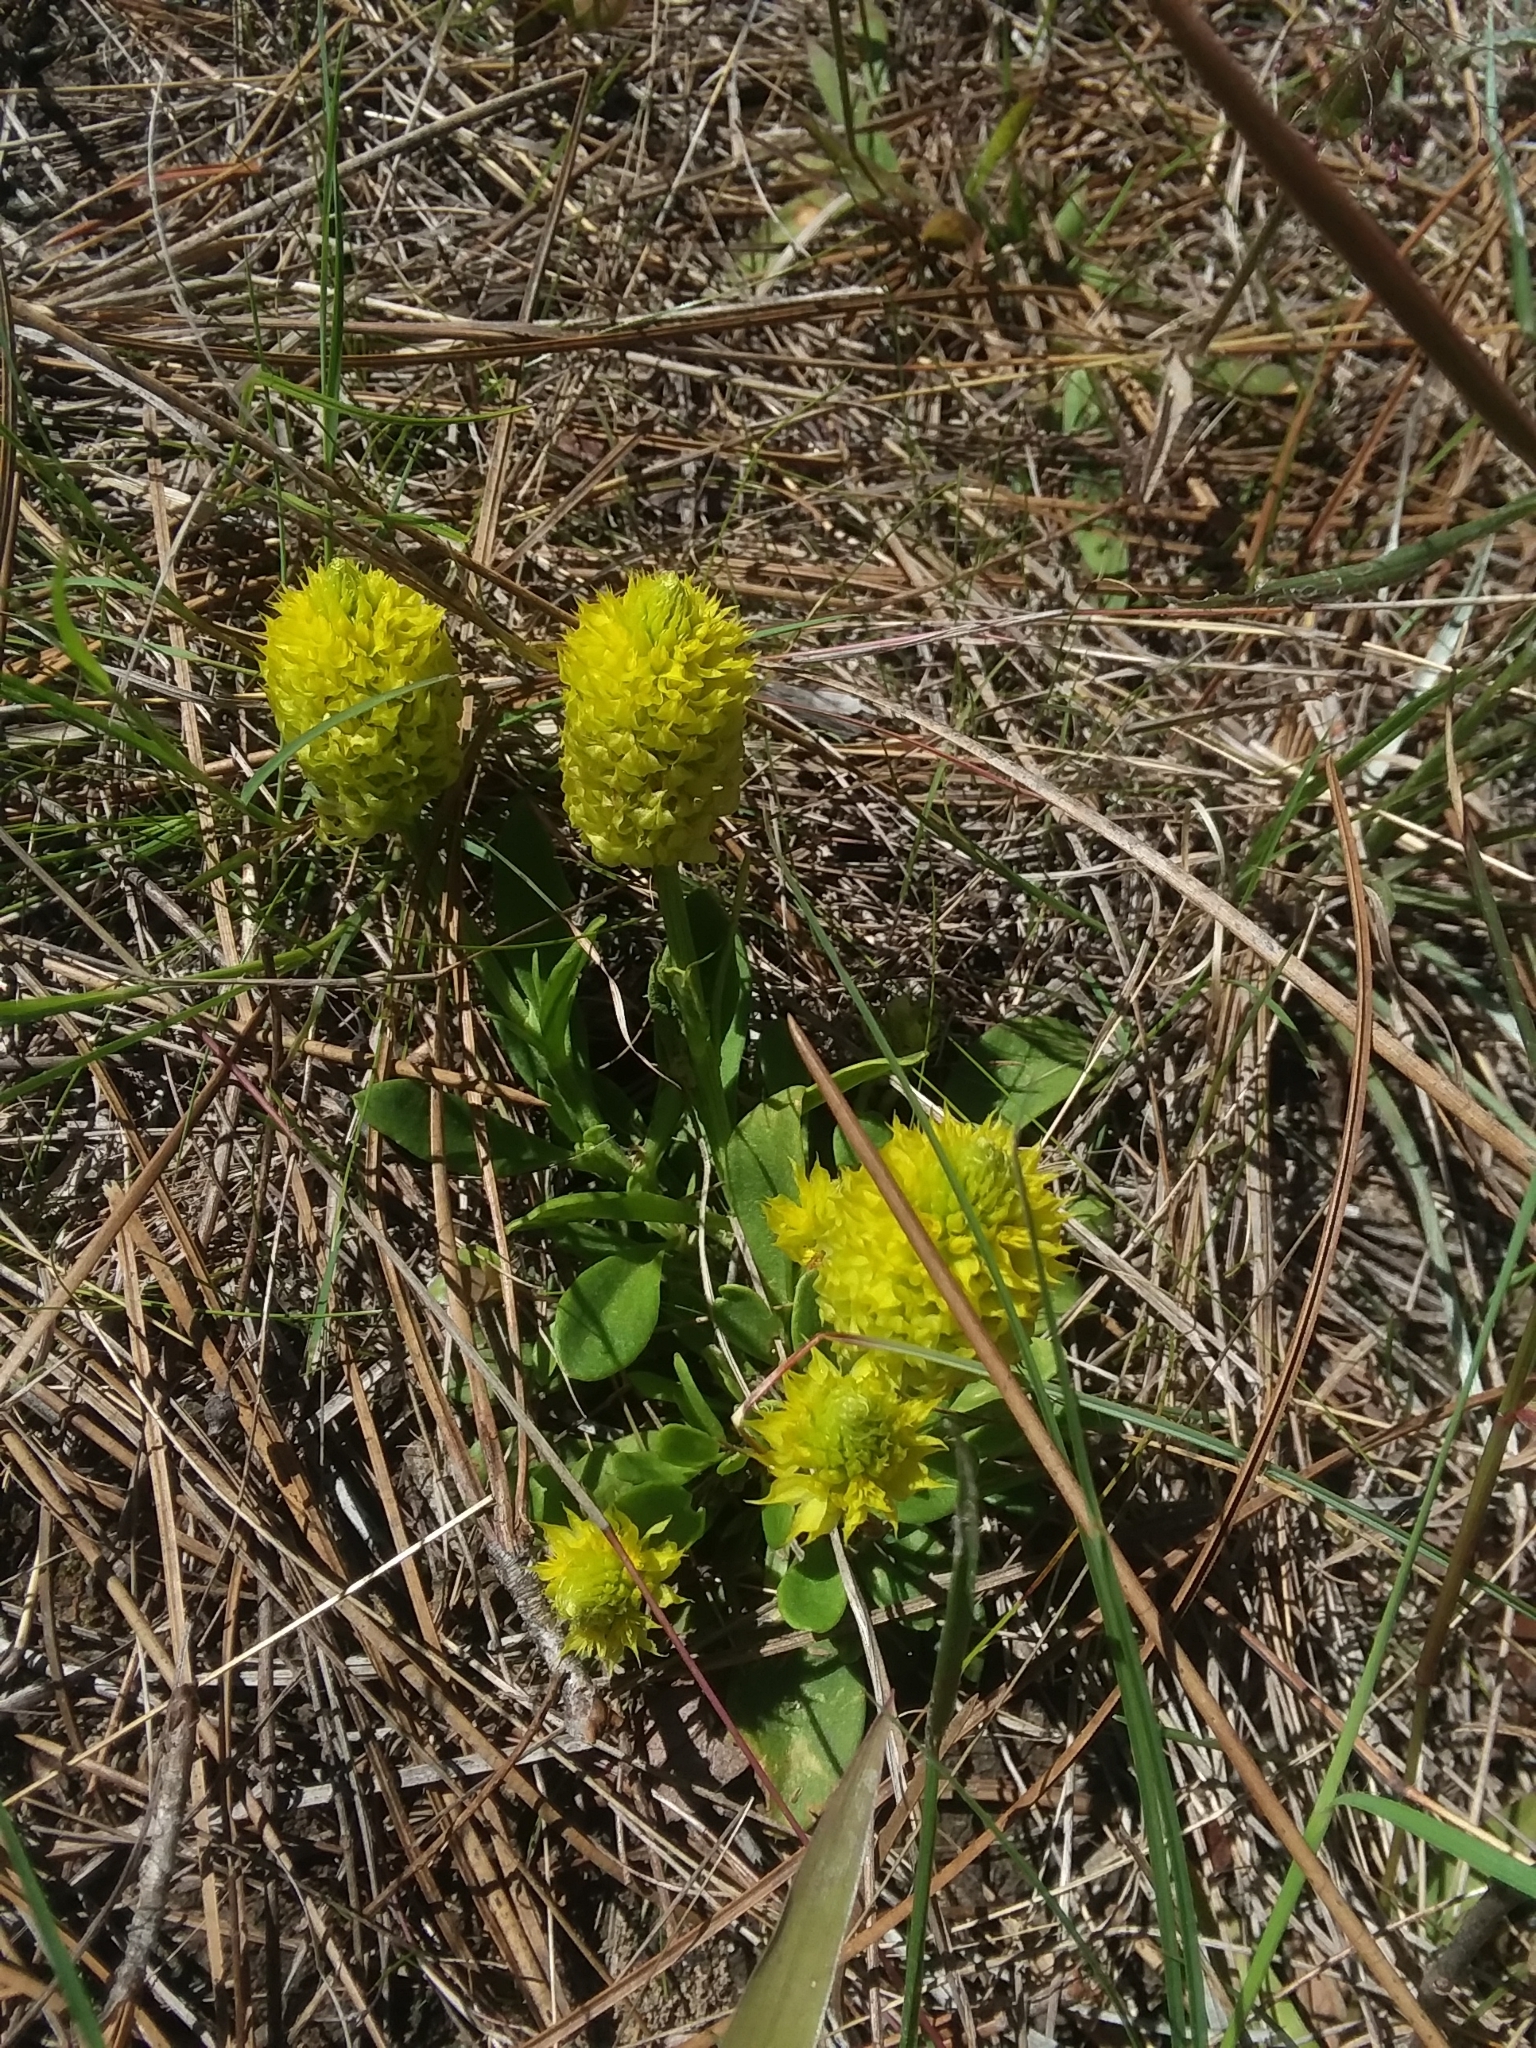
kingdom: Plantae
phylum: Tracheophyta
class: Magnoliopsida
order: Fabales
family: Polygalaceae
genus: Polygala
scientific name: Polygala nana
